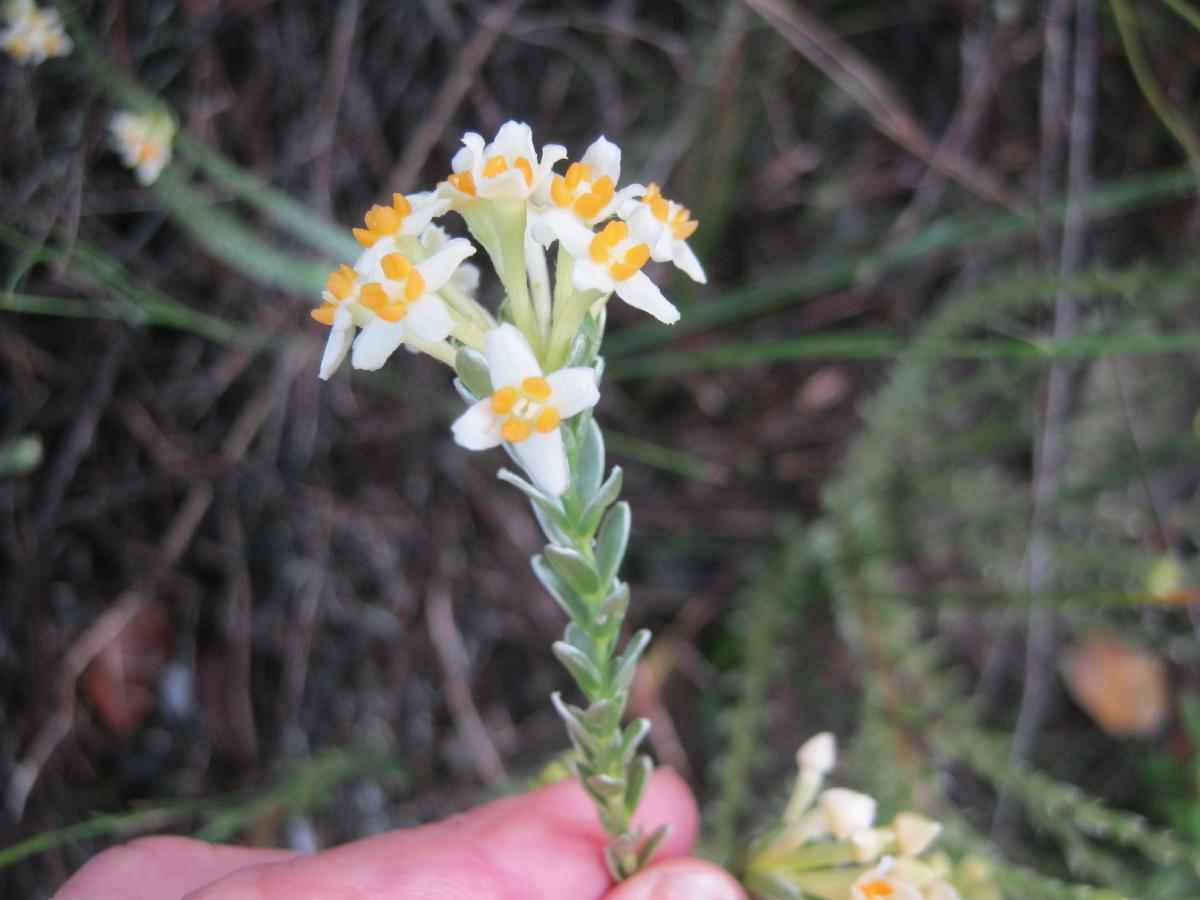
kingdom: Plantae
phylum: Tracheophyta
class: Magnoliopsida
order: Malvales
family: Thymelaeaceae
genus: Gnidia
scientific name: Gnidia chrysophylla
